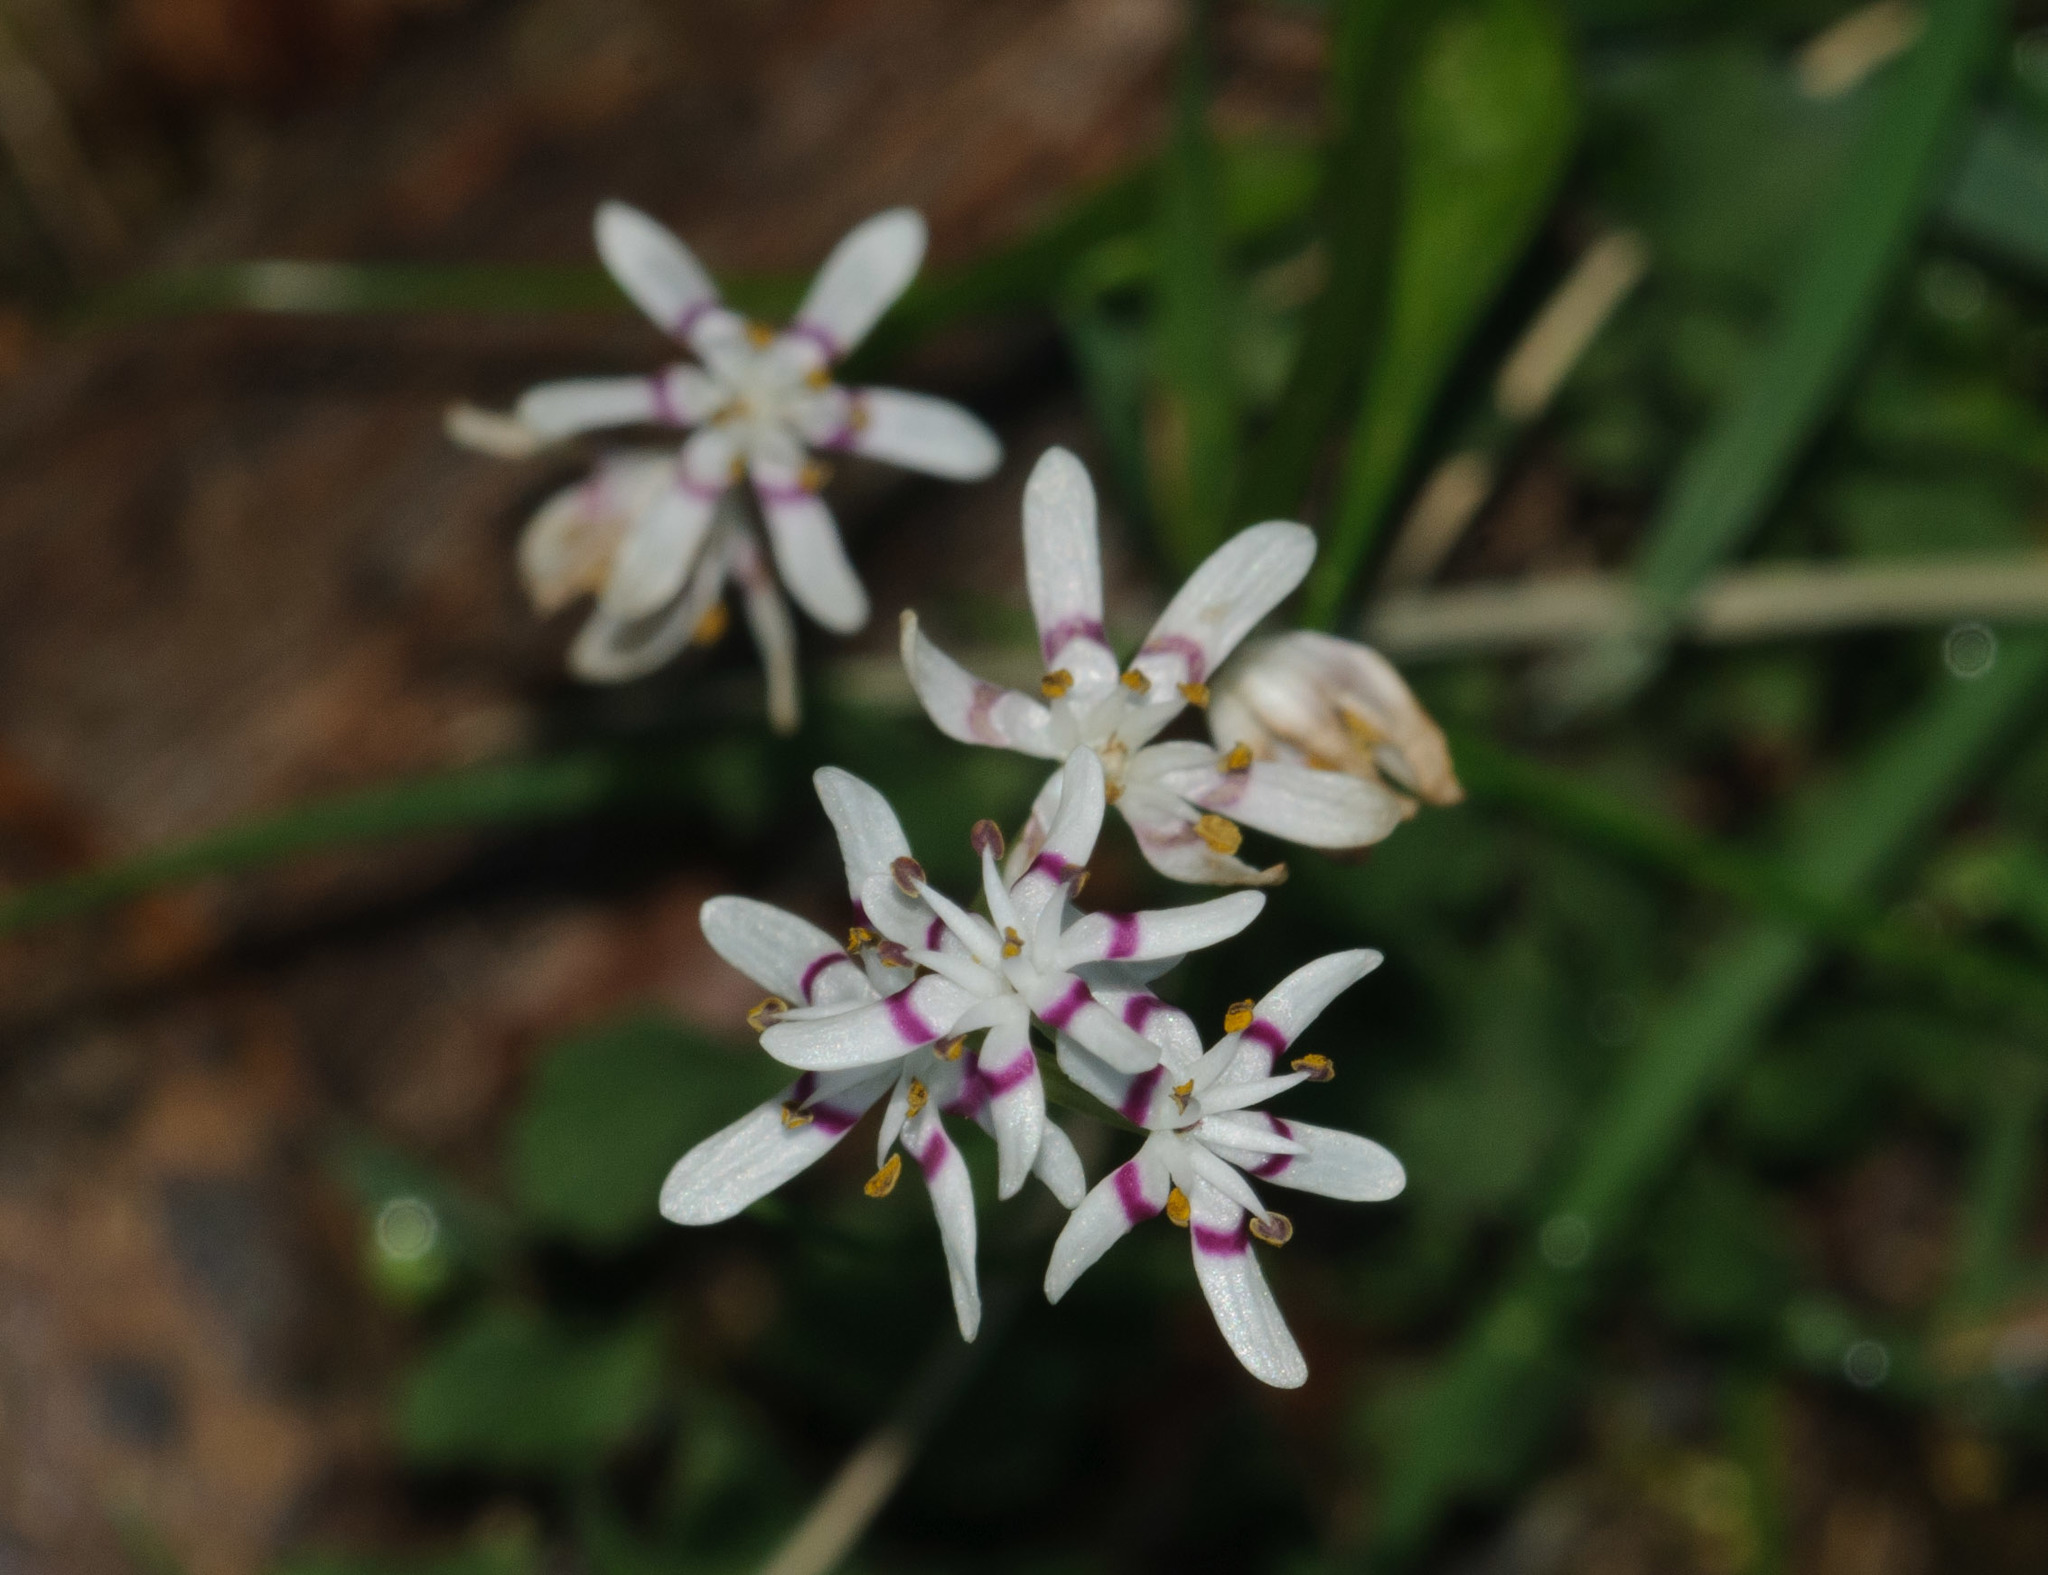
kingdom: Plantae
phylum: Tracheophyta
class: Liliopsida
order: Liliales
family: Colchicaceae
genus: Wurmbea
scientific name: Wurmbea dioica
